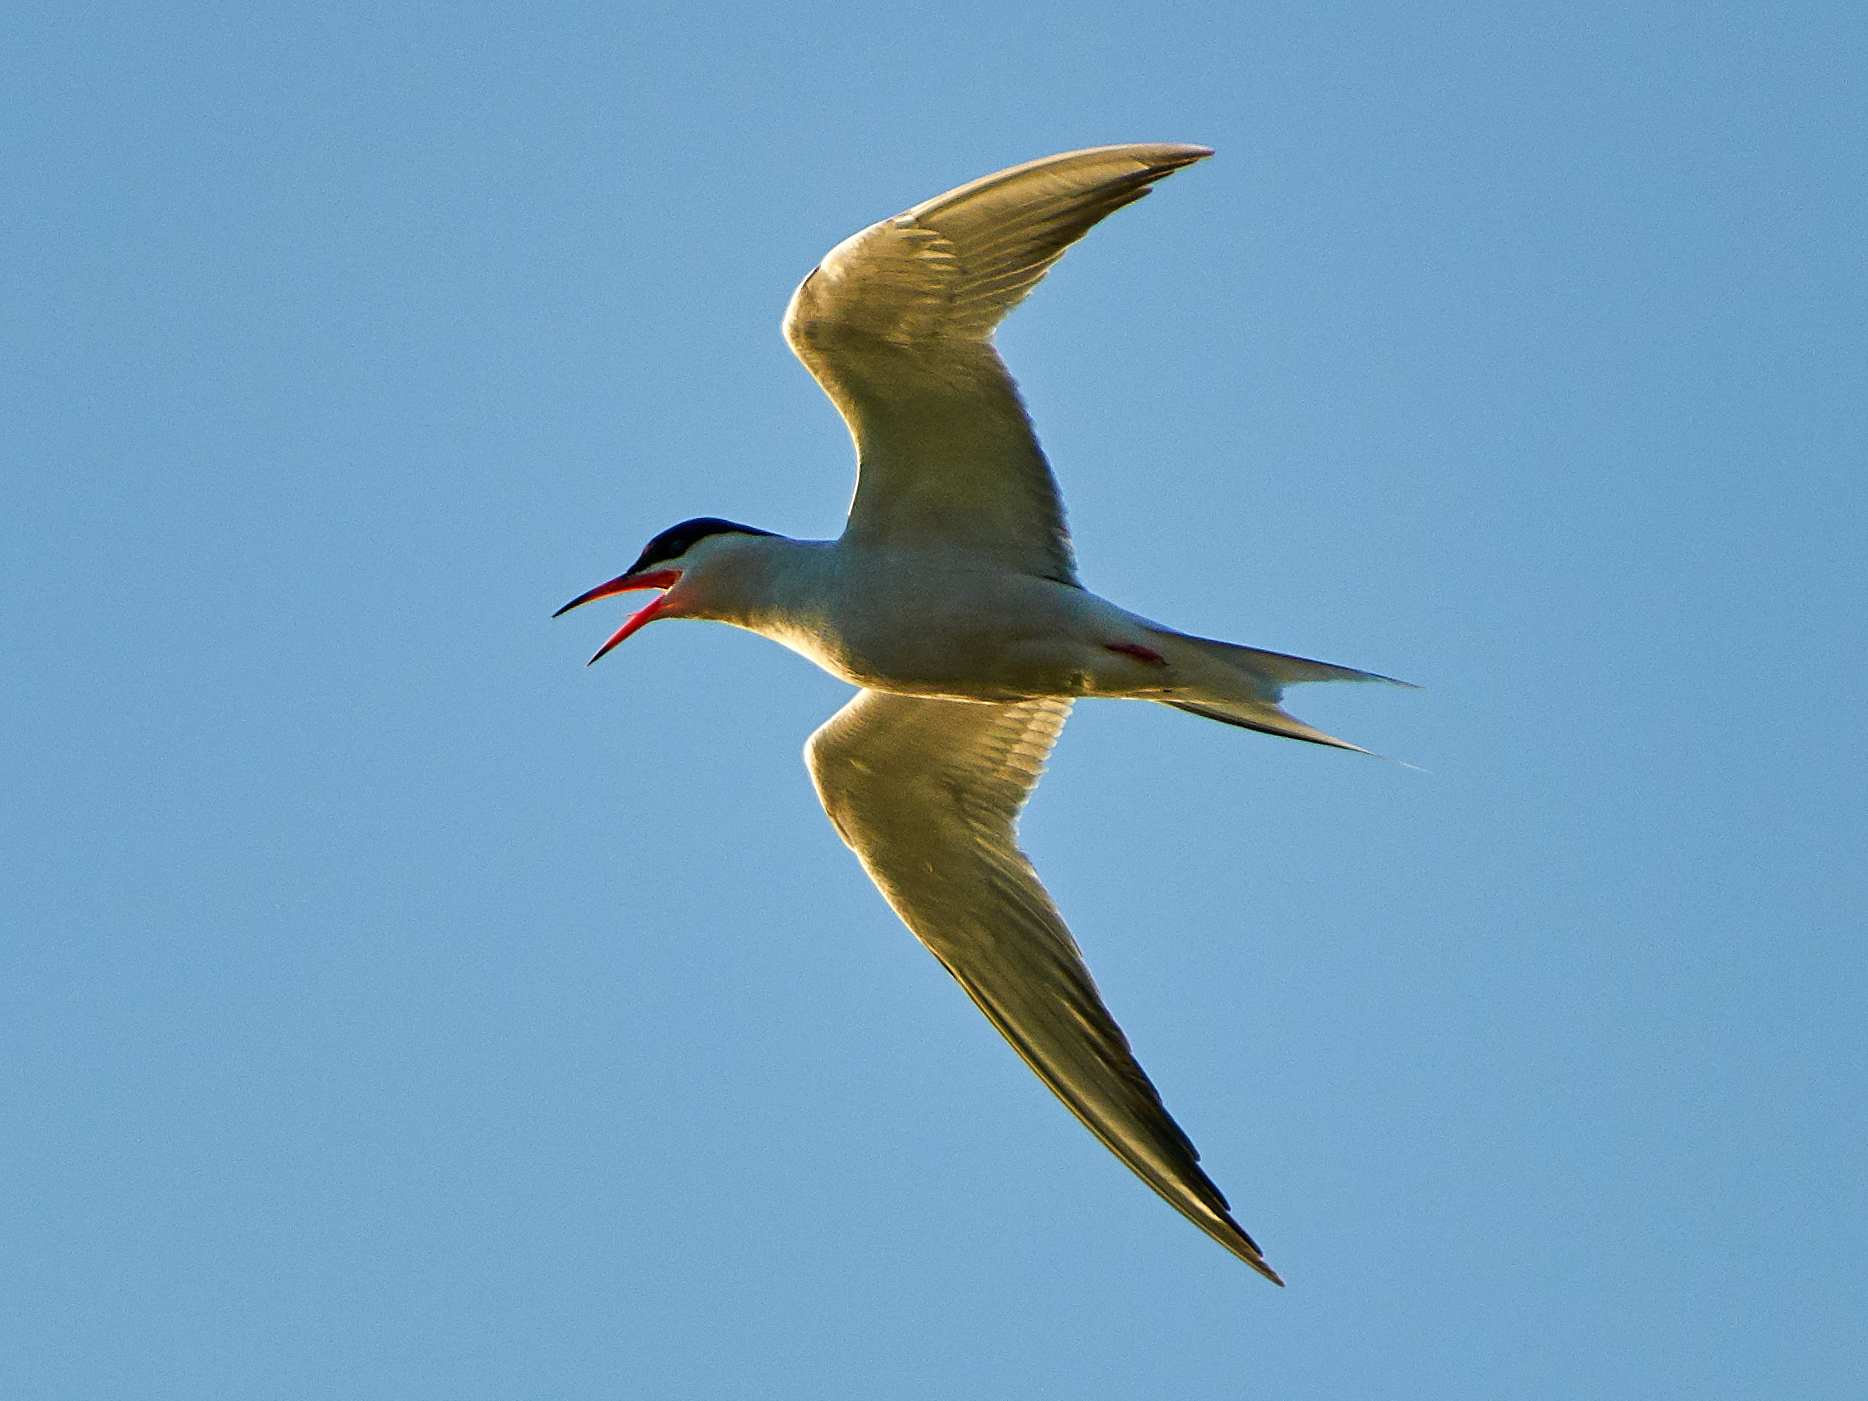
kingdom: Animalia
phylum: Chordata
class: Aves
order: Charadriiformes
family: Laridae
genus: Sterna
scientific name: Sterna hirundo
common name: Common tern
